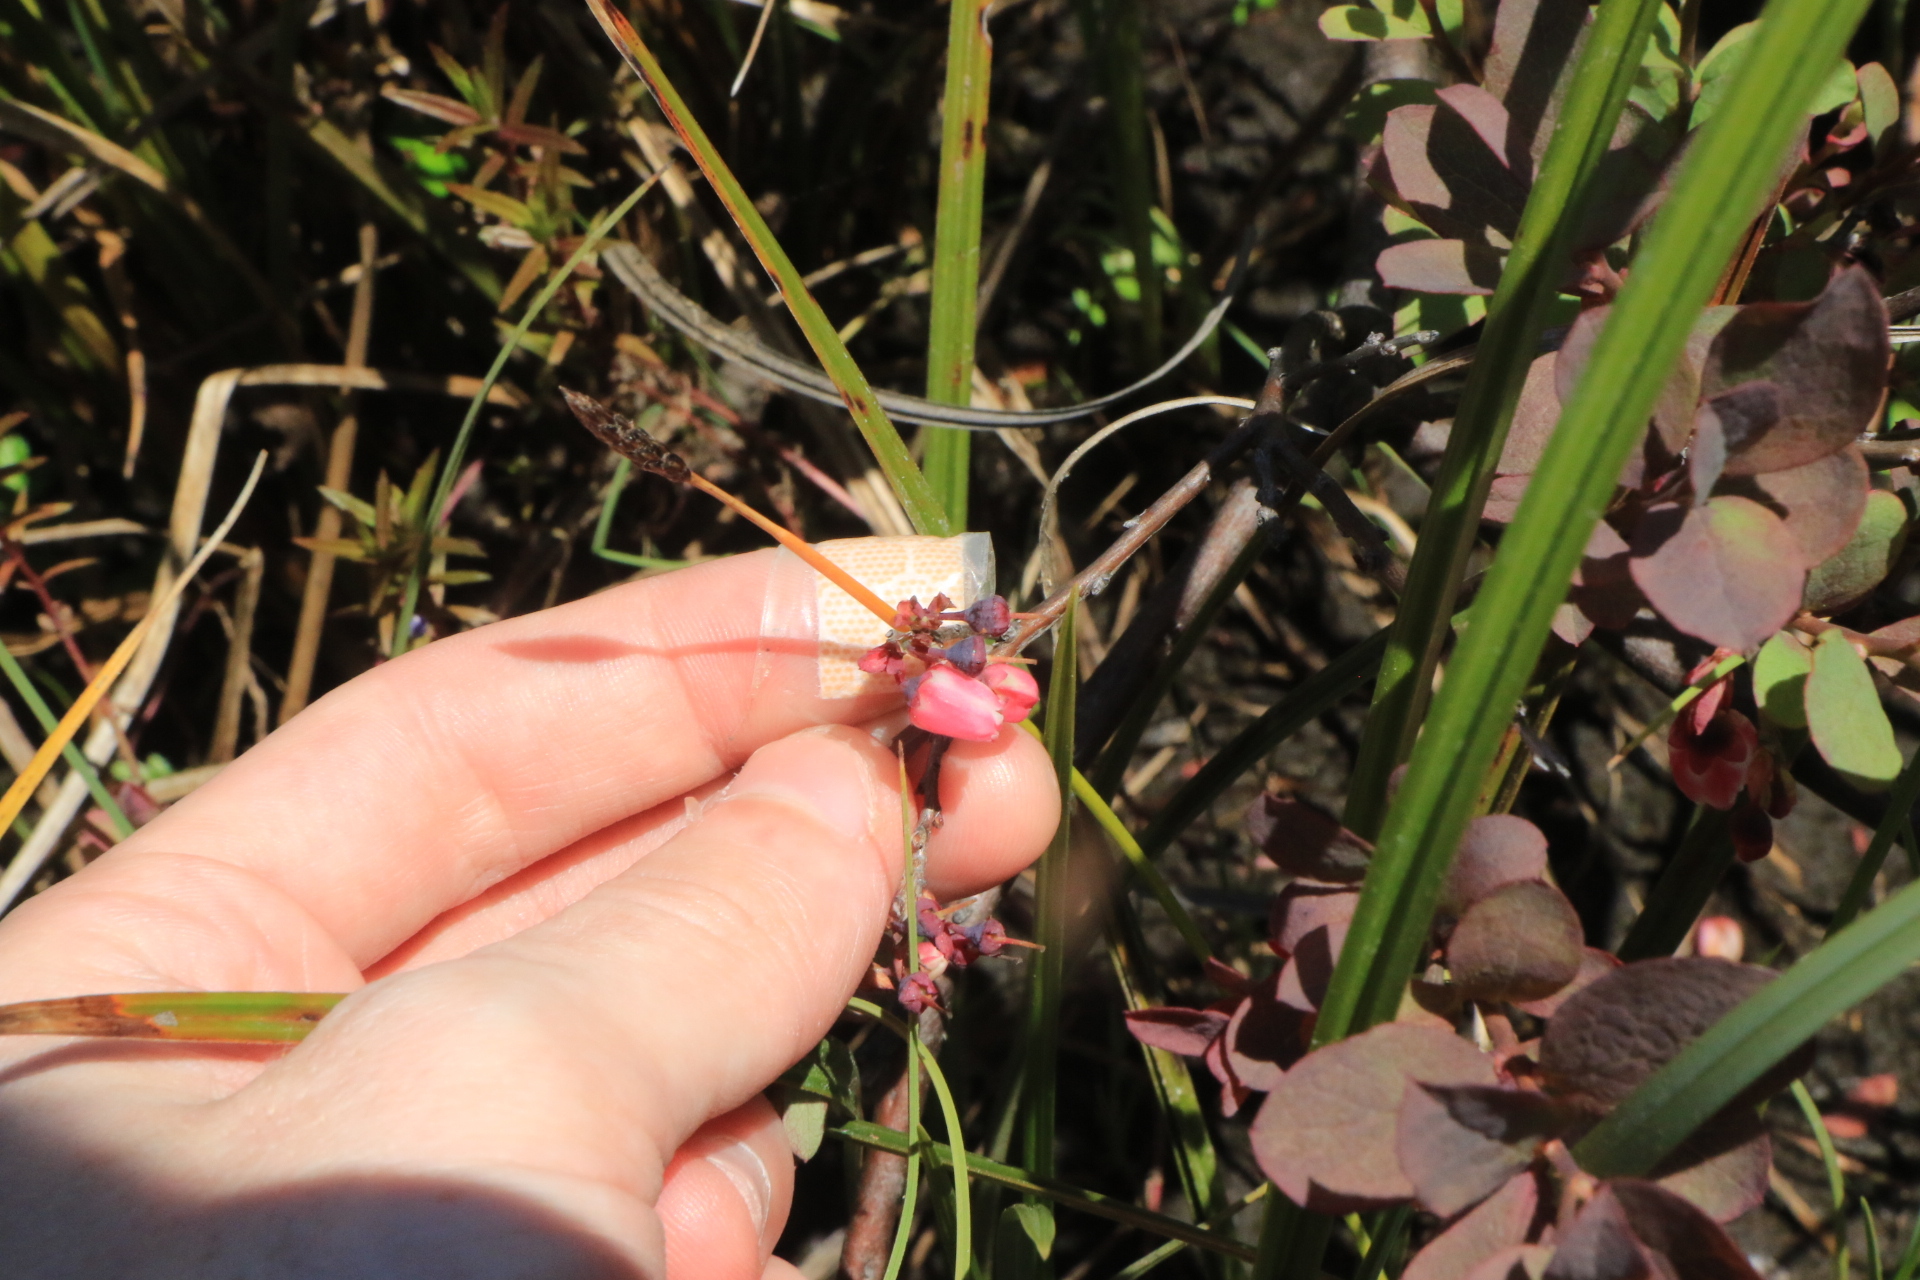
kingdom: Plantae
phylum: Tracheophyta
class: Magnoliopsida
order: Ericales
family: Ericaceae
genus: Vaccinium
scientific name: Vaccinium uliginosum
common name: Bog bilberry
